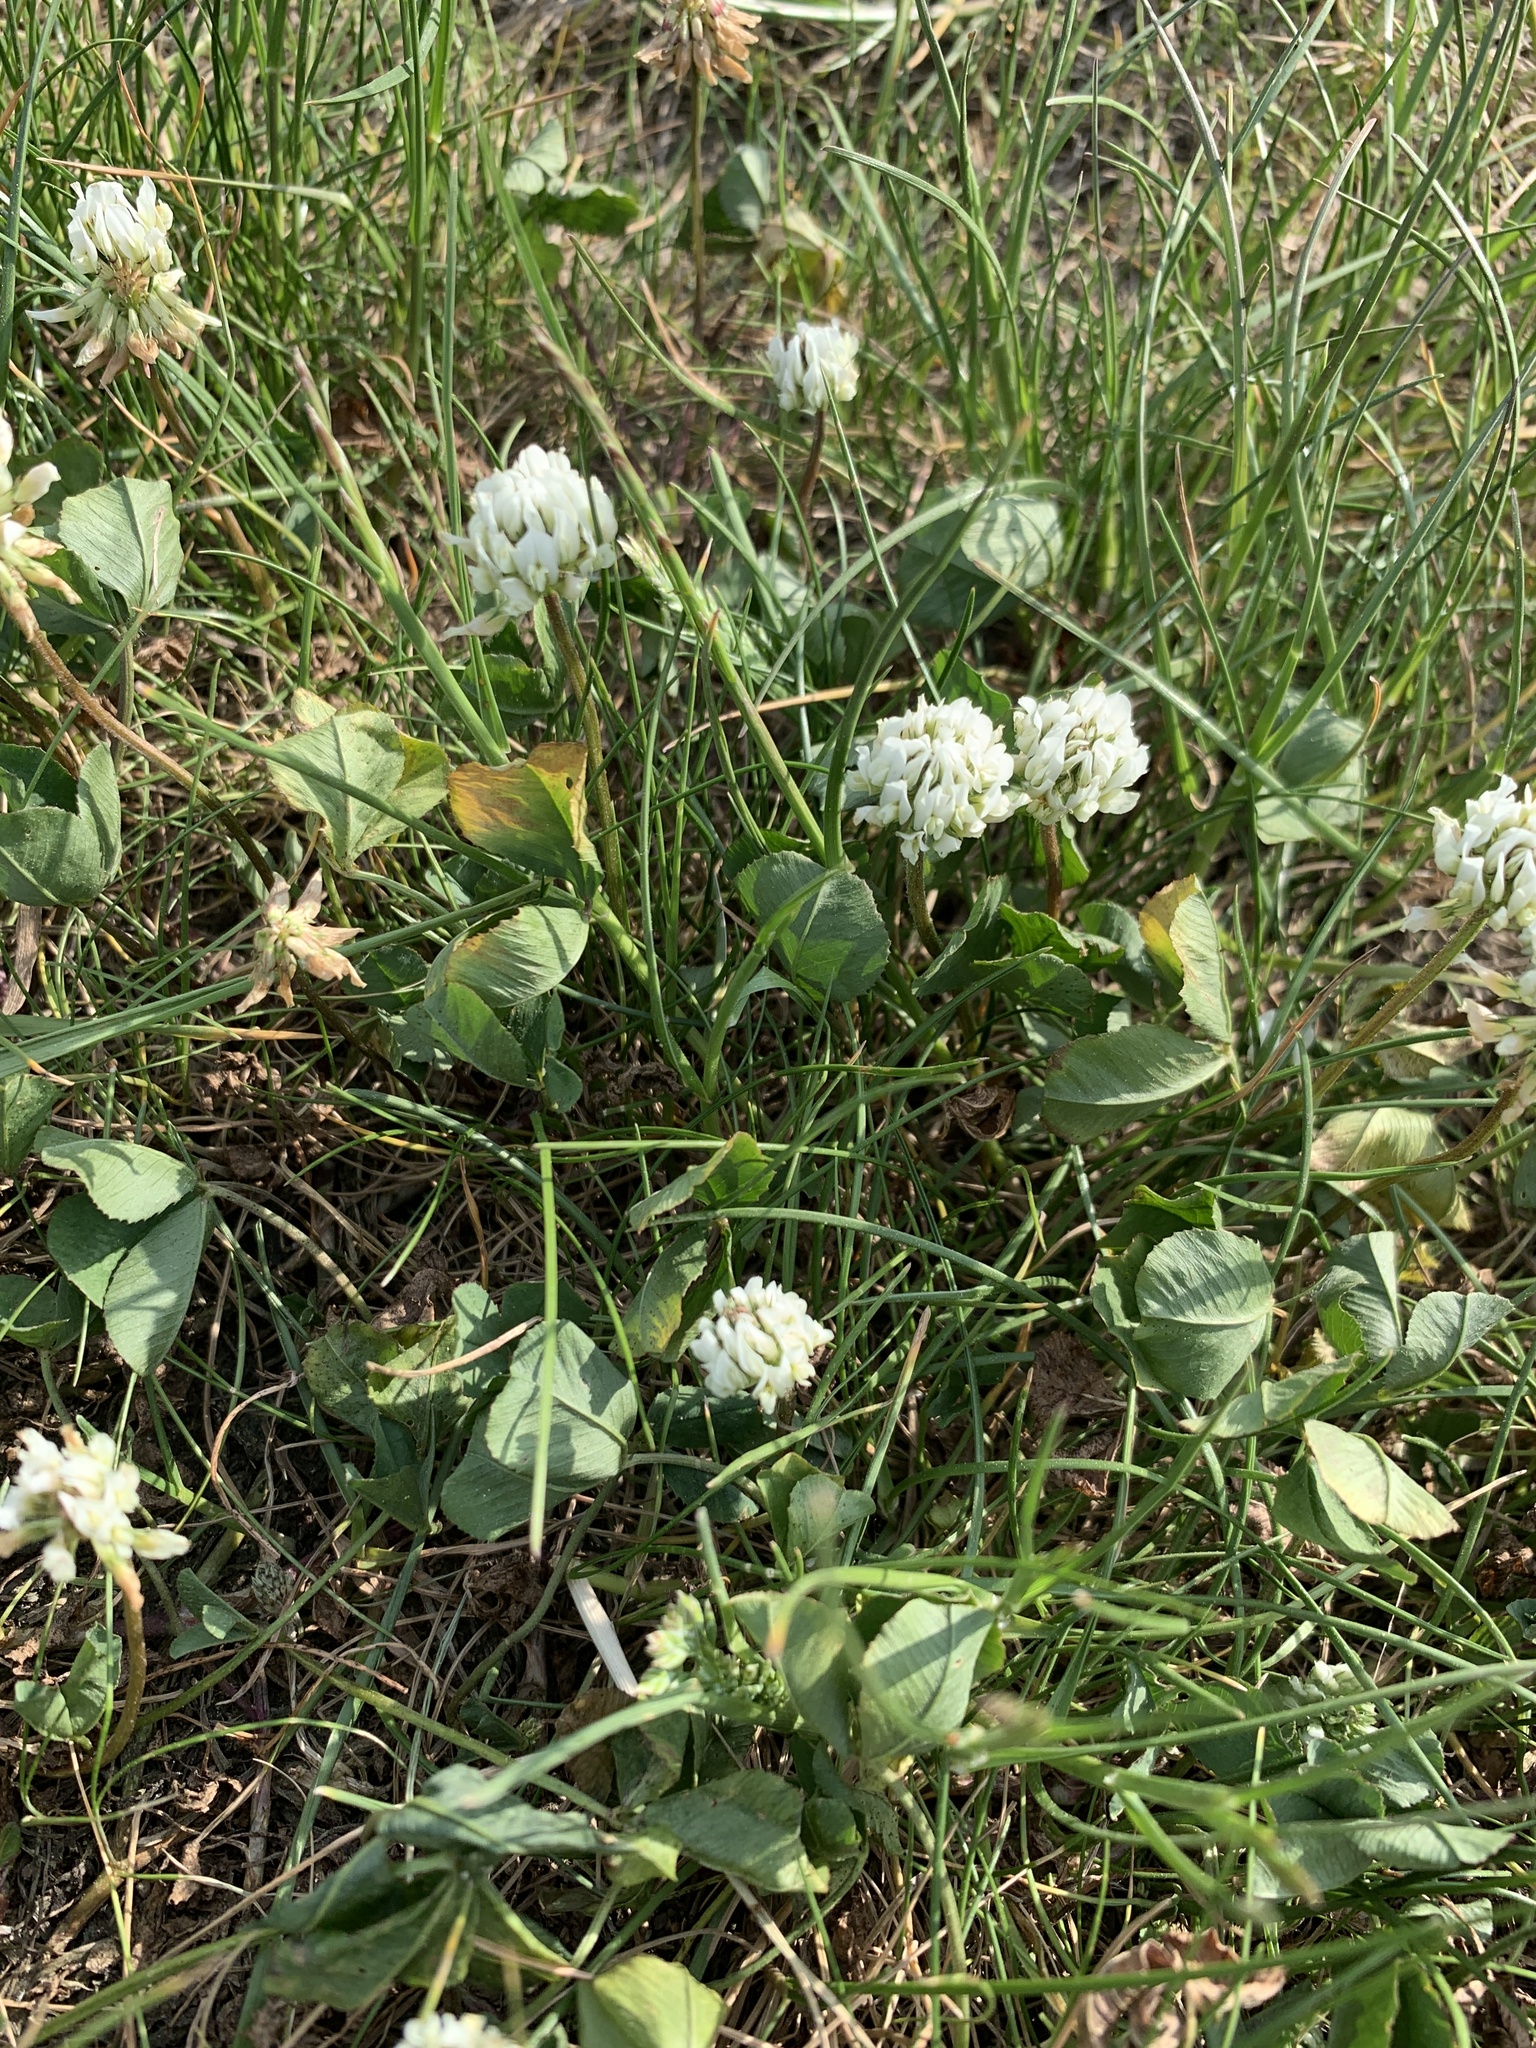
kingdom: Plantae
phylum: Tracheophyta
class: Magnoliopsida
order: Fabales
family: Fabaceae
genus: Trifolium
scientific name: Trifolium repens
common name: White clover
